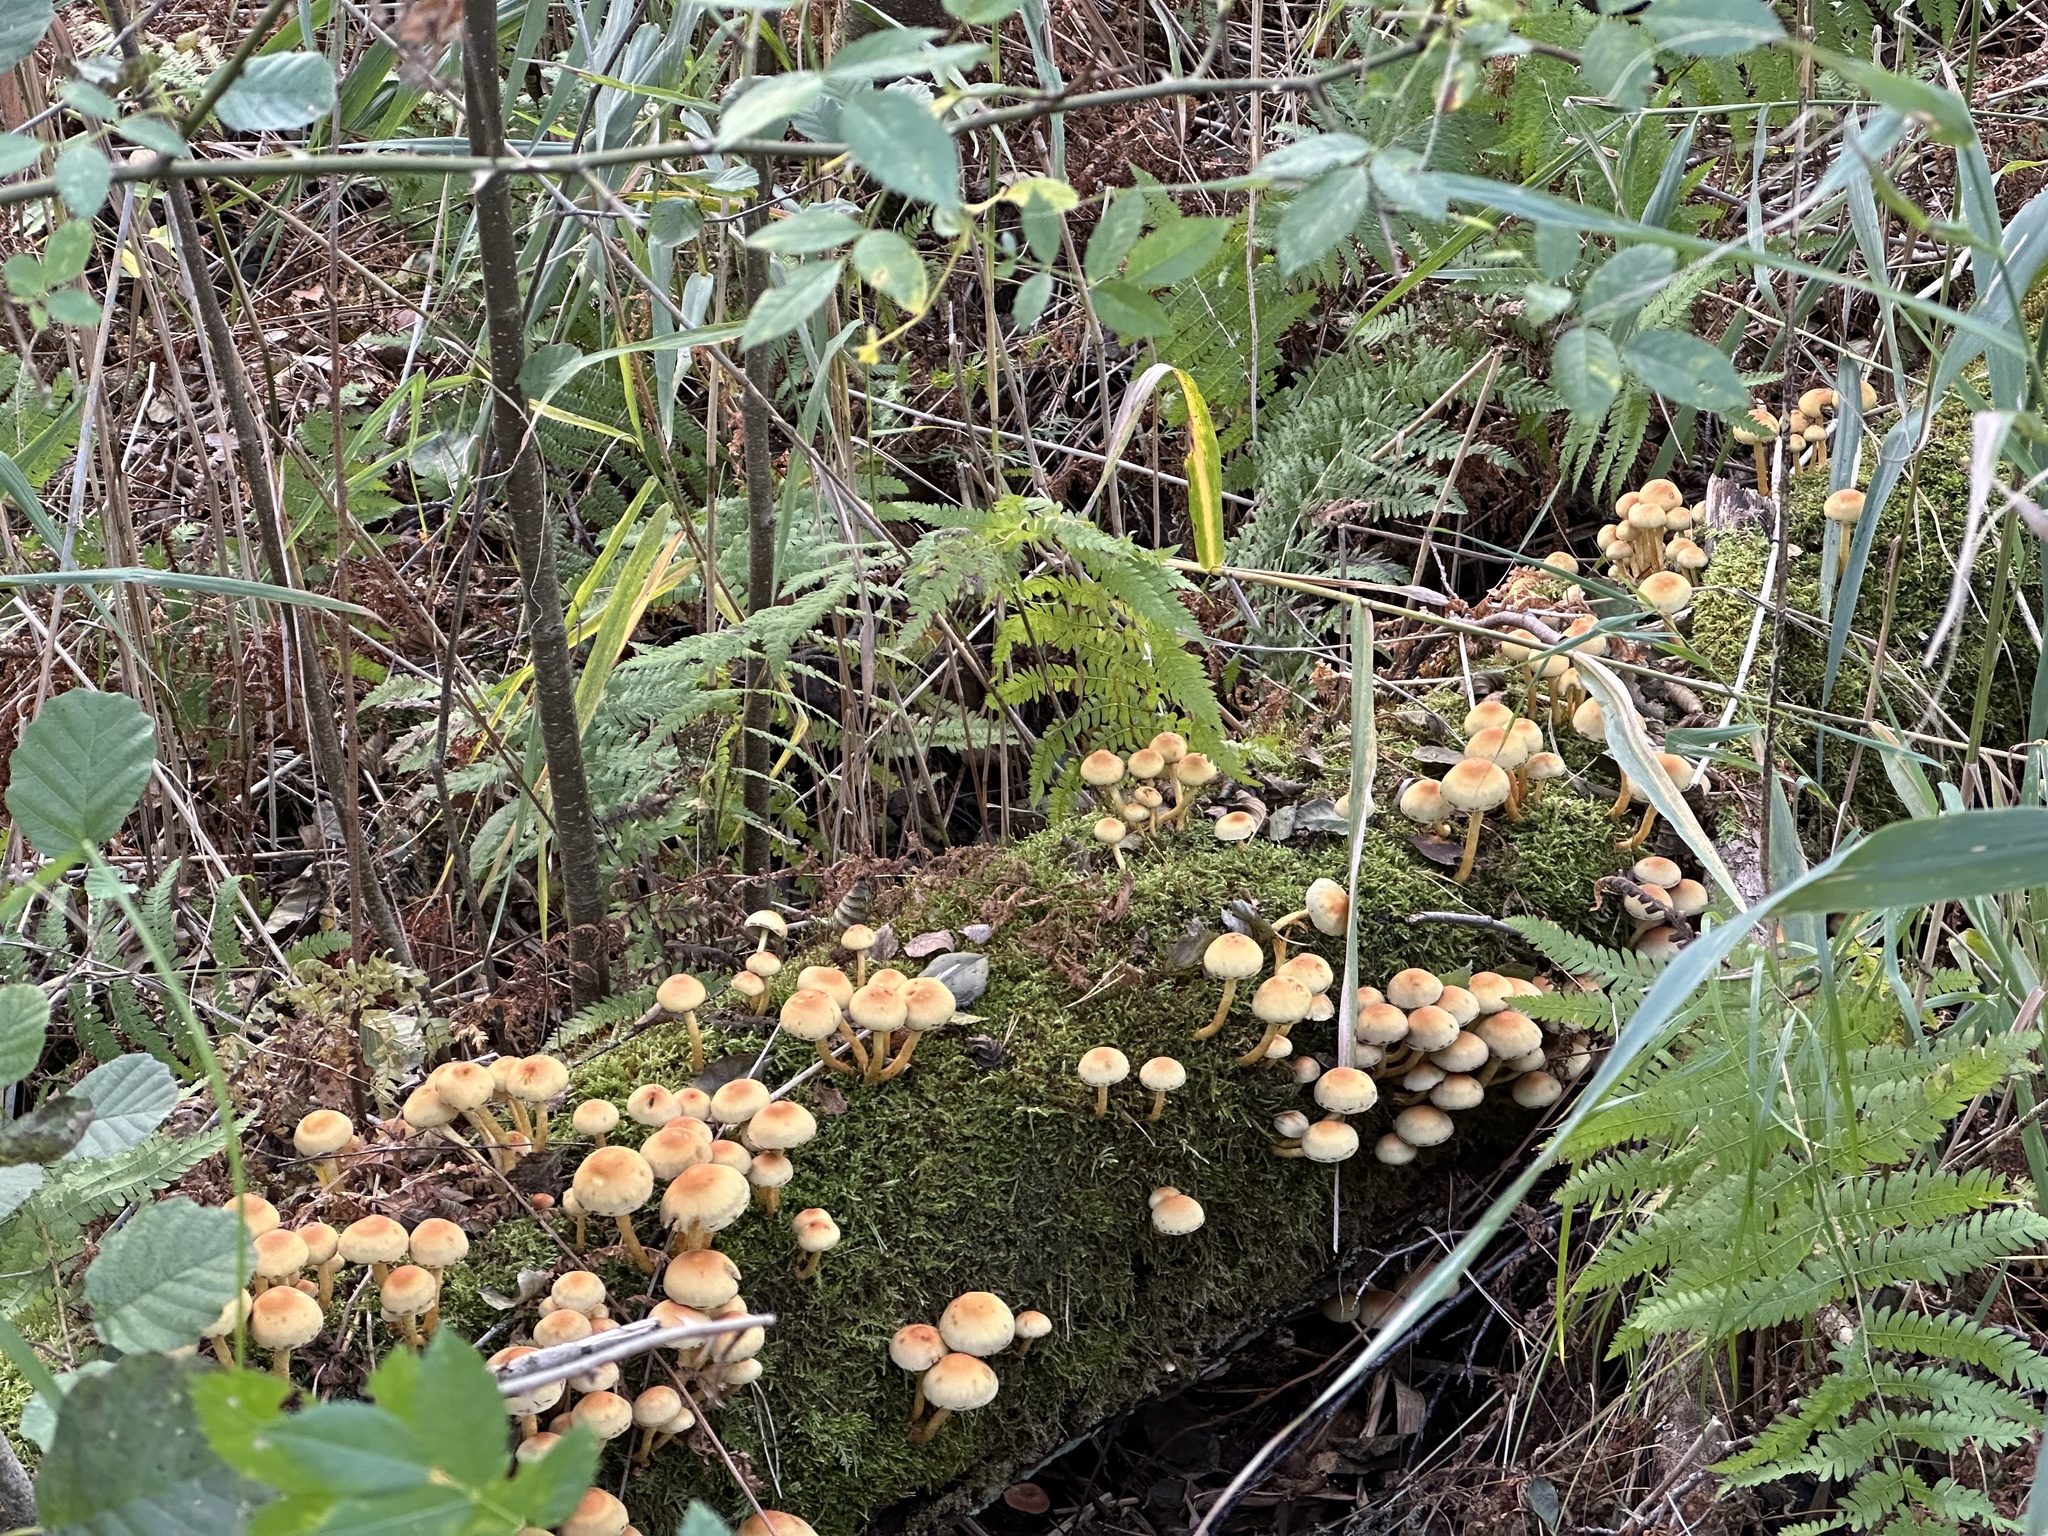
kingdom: Fungi
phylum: Basidiomycota
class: Agaricomycetes
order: Agaricales
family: Strophariaceae
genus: Hypholoma
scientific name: Hypholoma fasciculare
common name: Sulphur tuft
